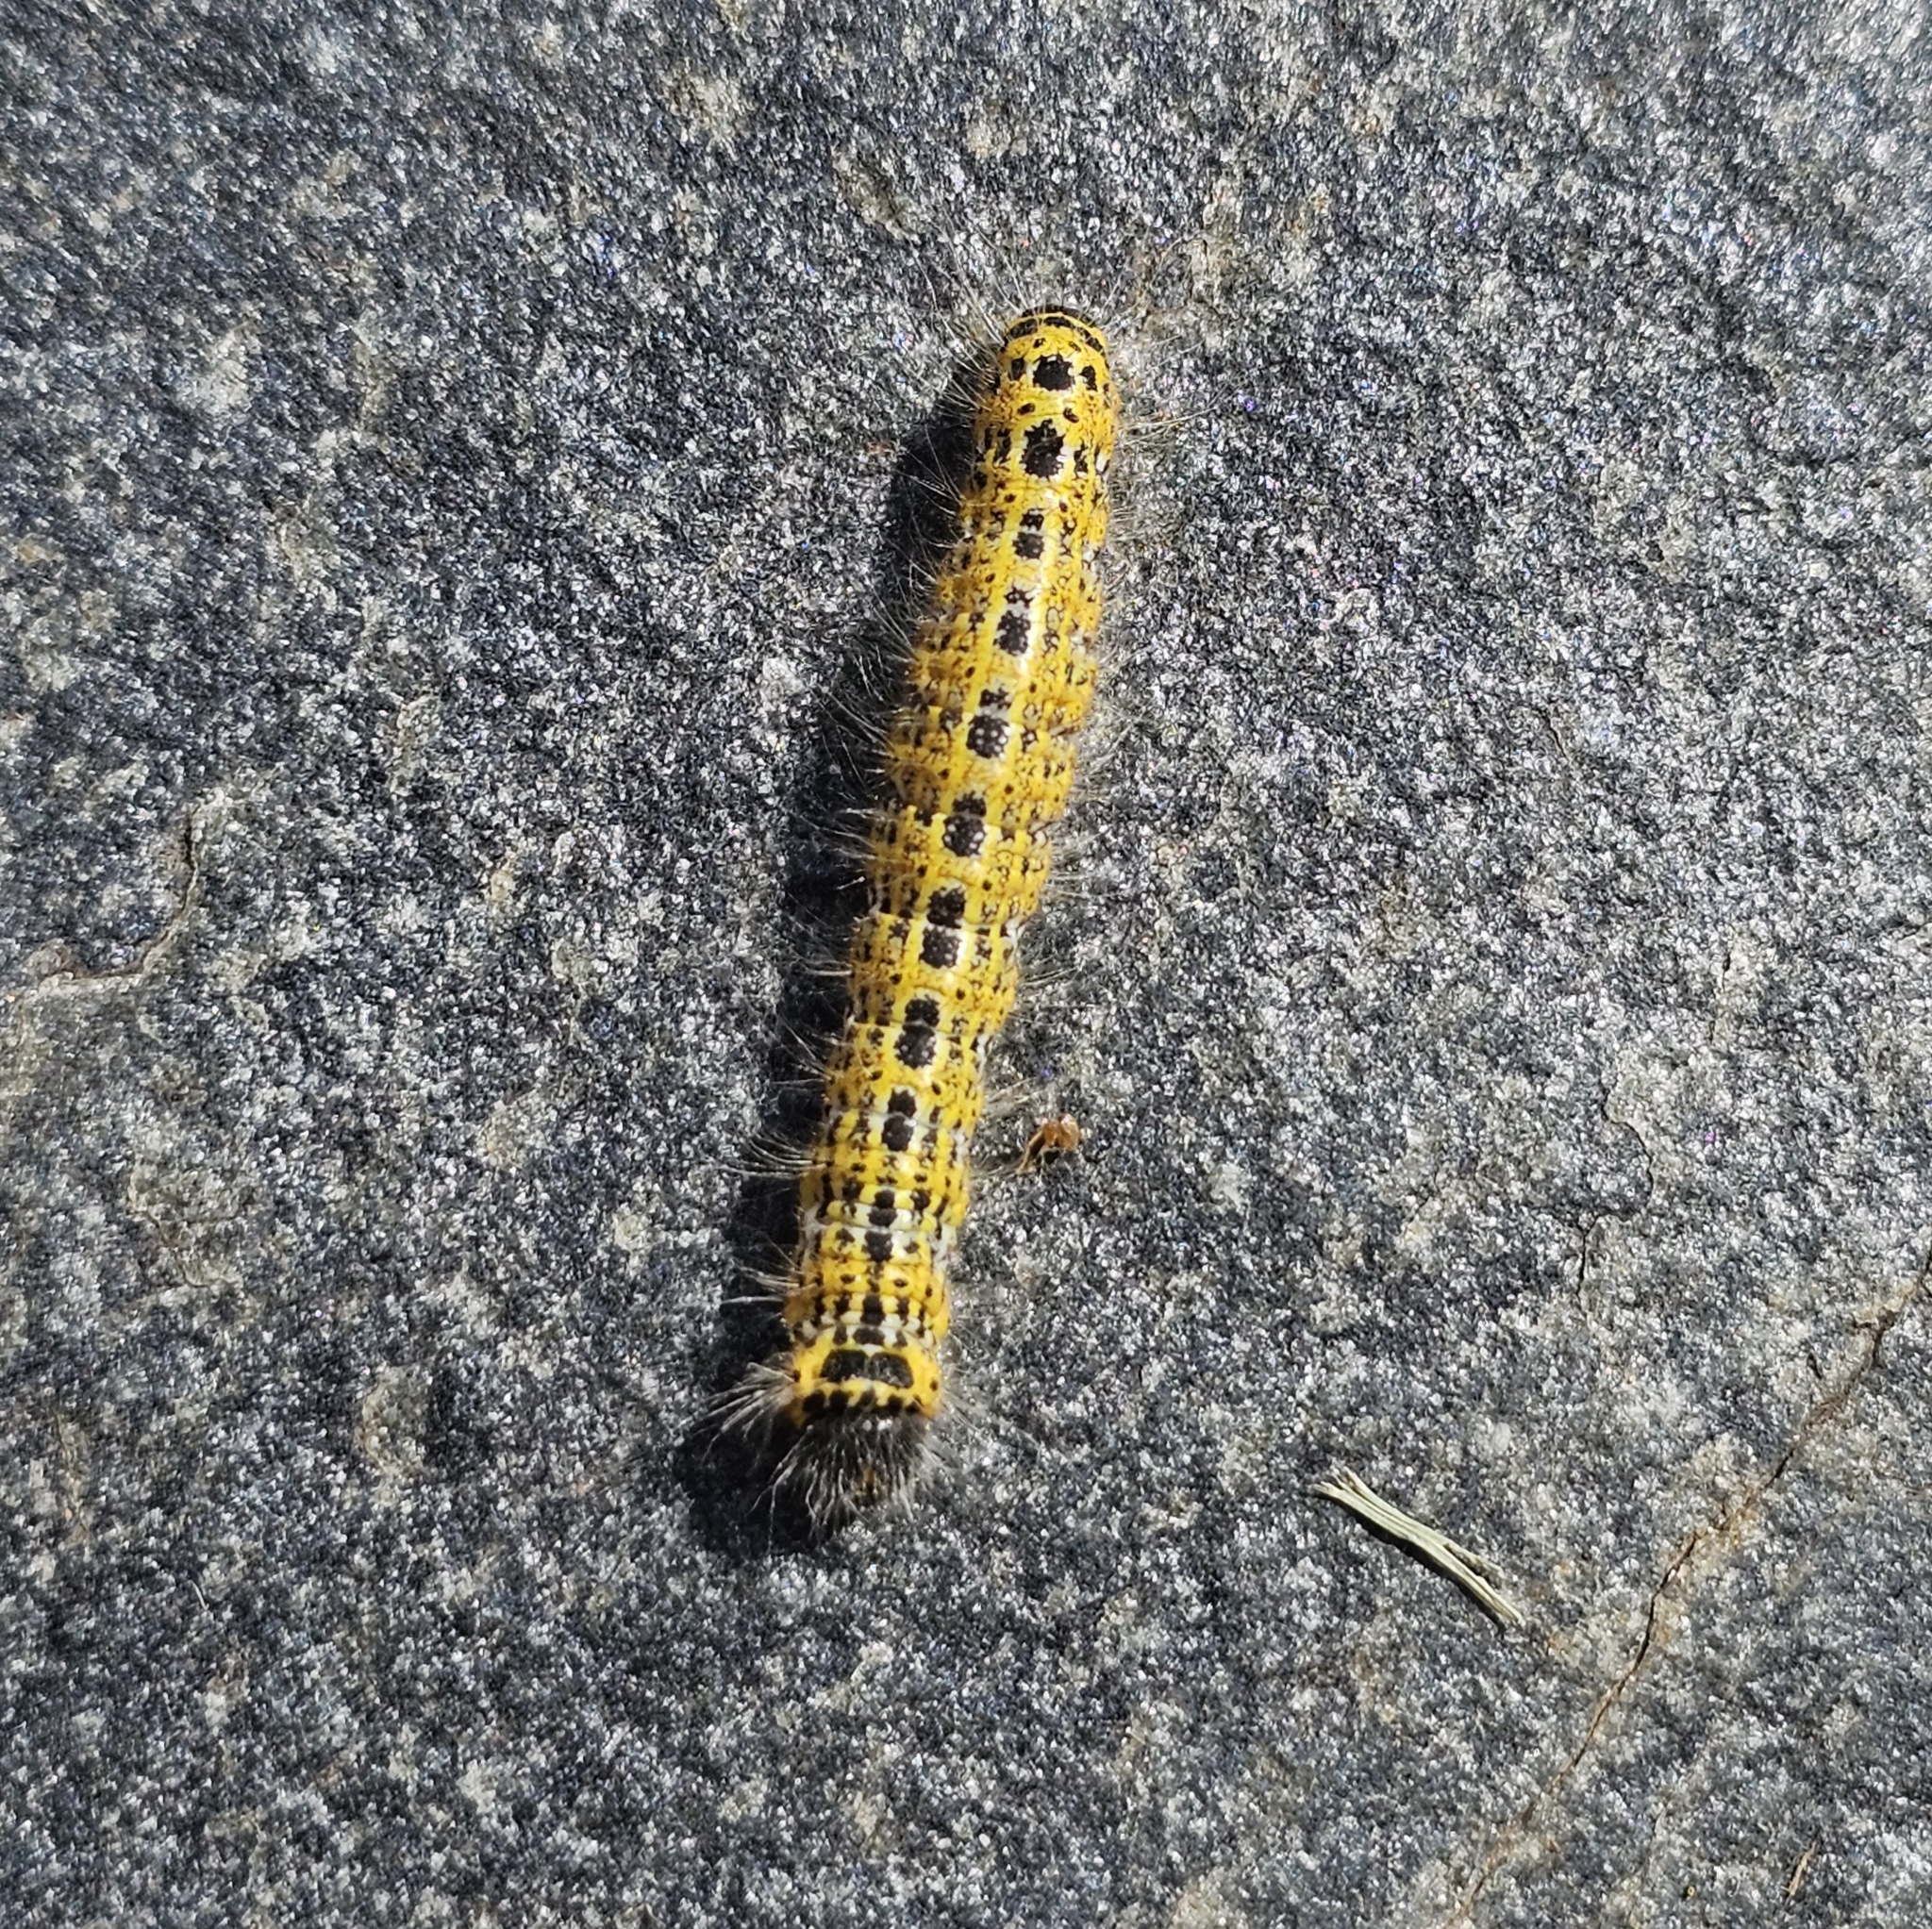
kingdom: Animalia
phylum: Arthropoda
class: Insecta
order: Lepidoptera
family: Notodontidae
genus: Phalera
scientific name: Phalera bucephala
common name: Buff-tip
